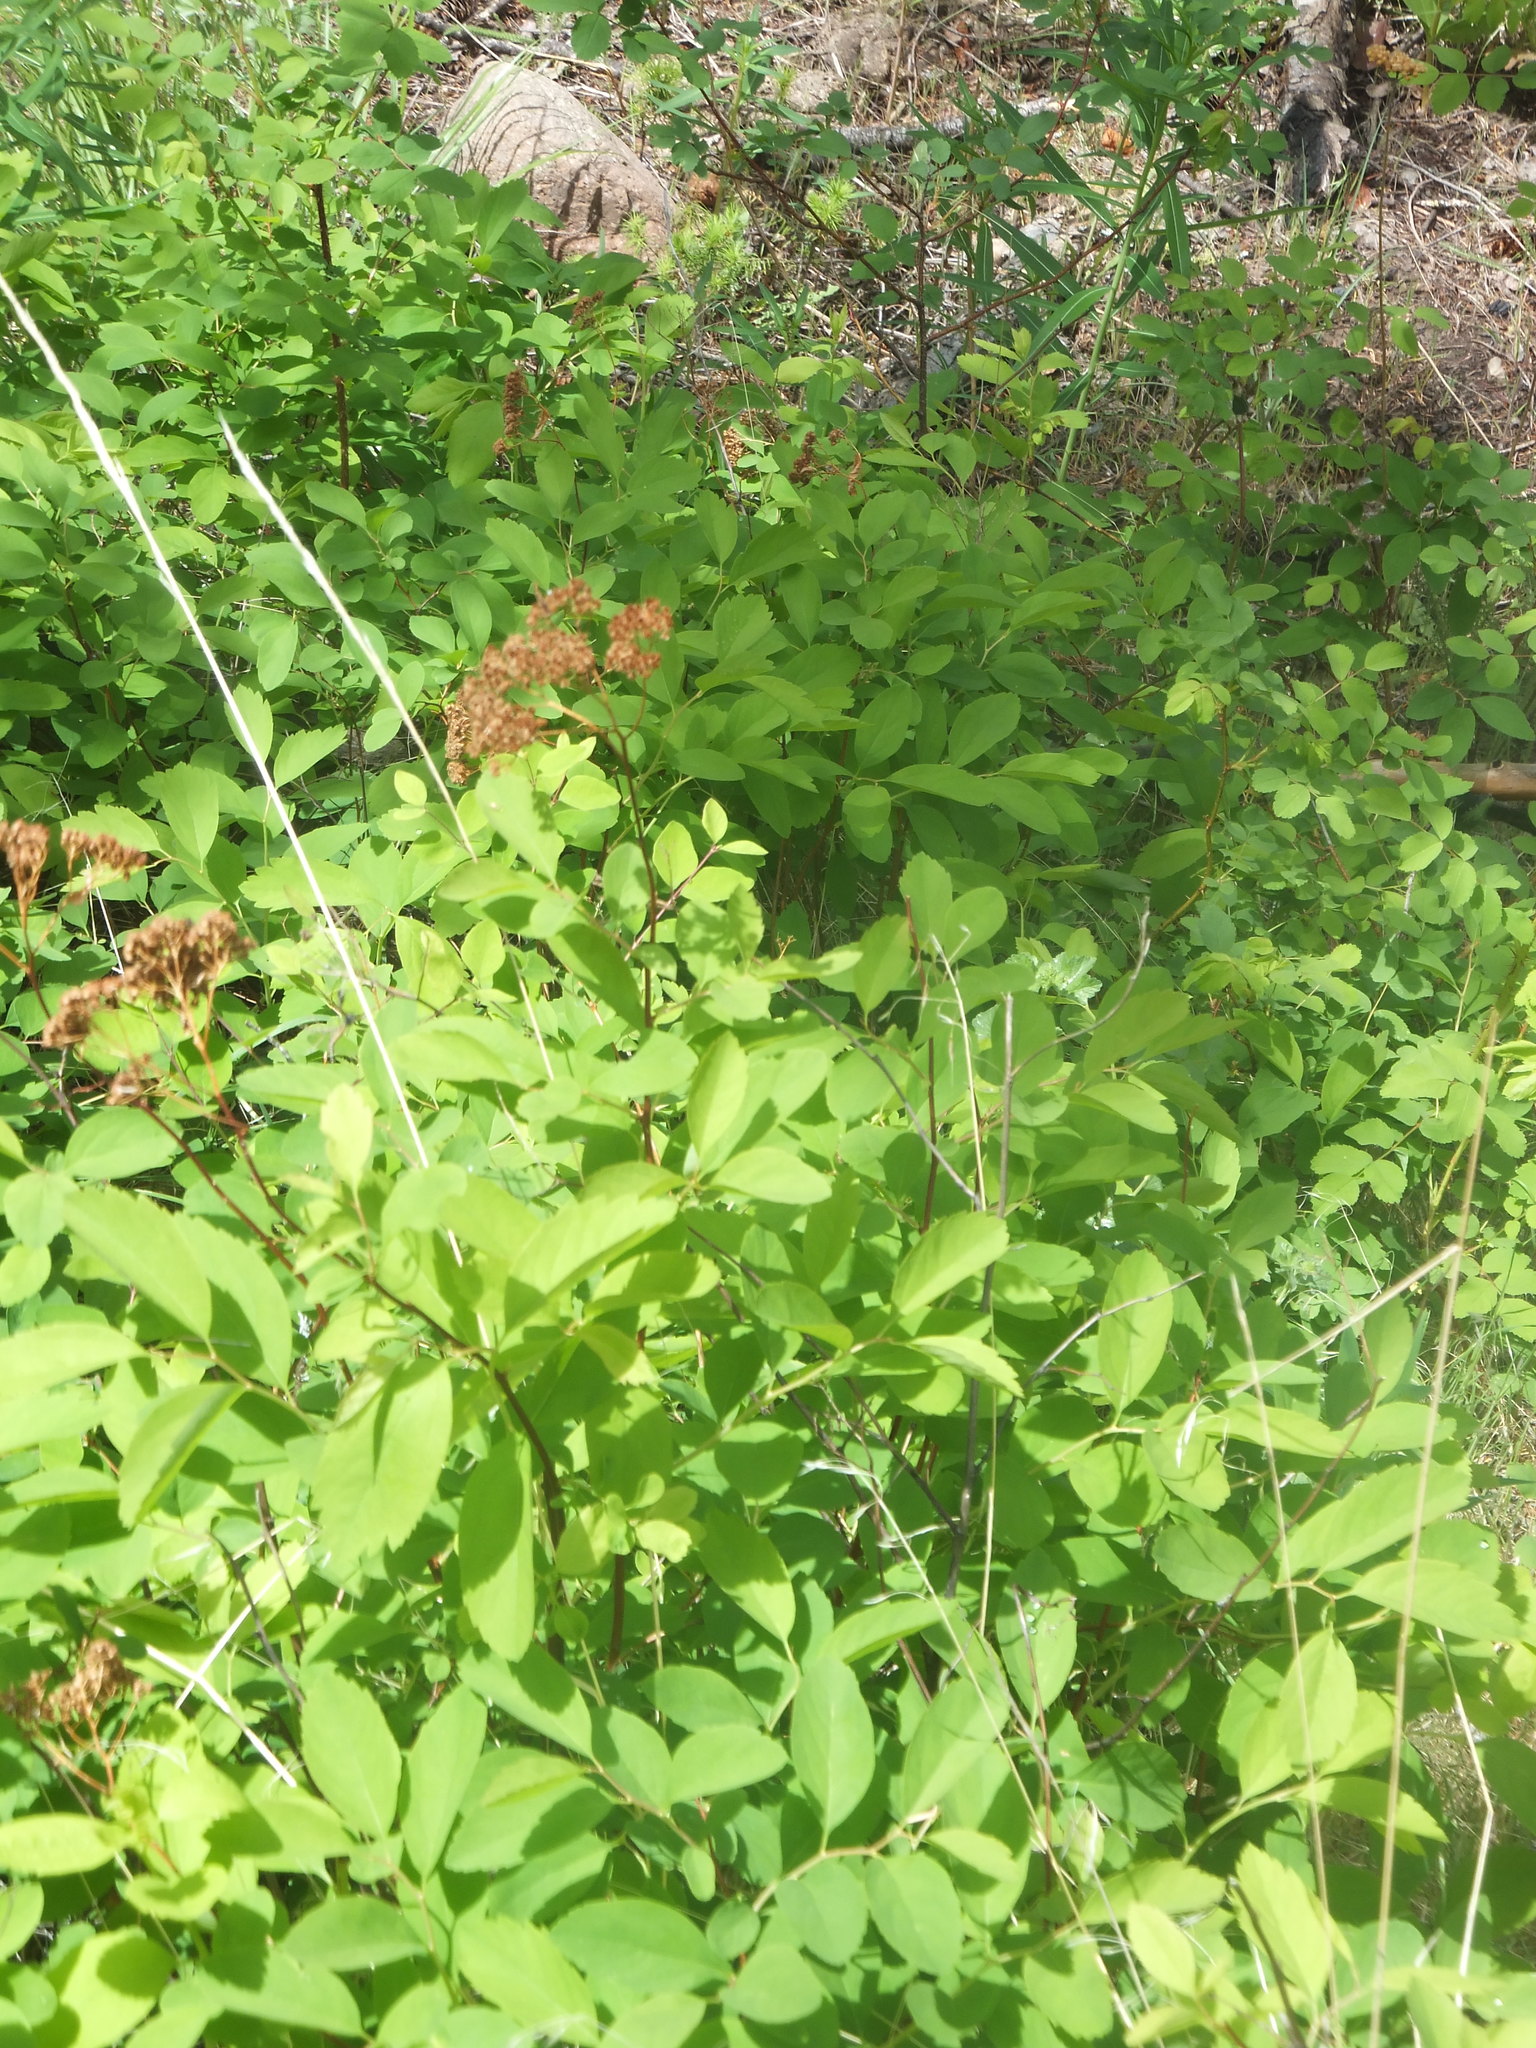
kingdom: Plantae
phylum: Tracheophyta
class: Magnoliopsida
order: Rosales
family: Rosaceae
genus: Spiraea
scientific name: Spiraea lucida
